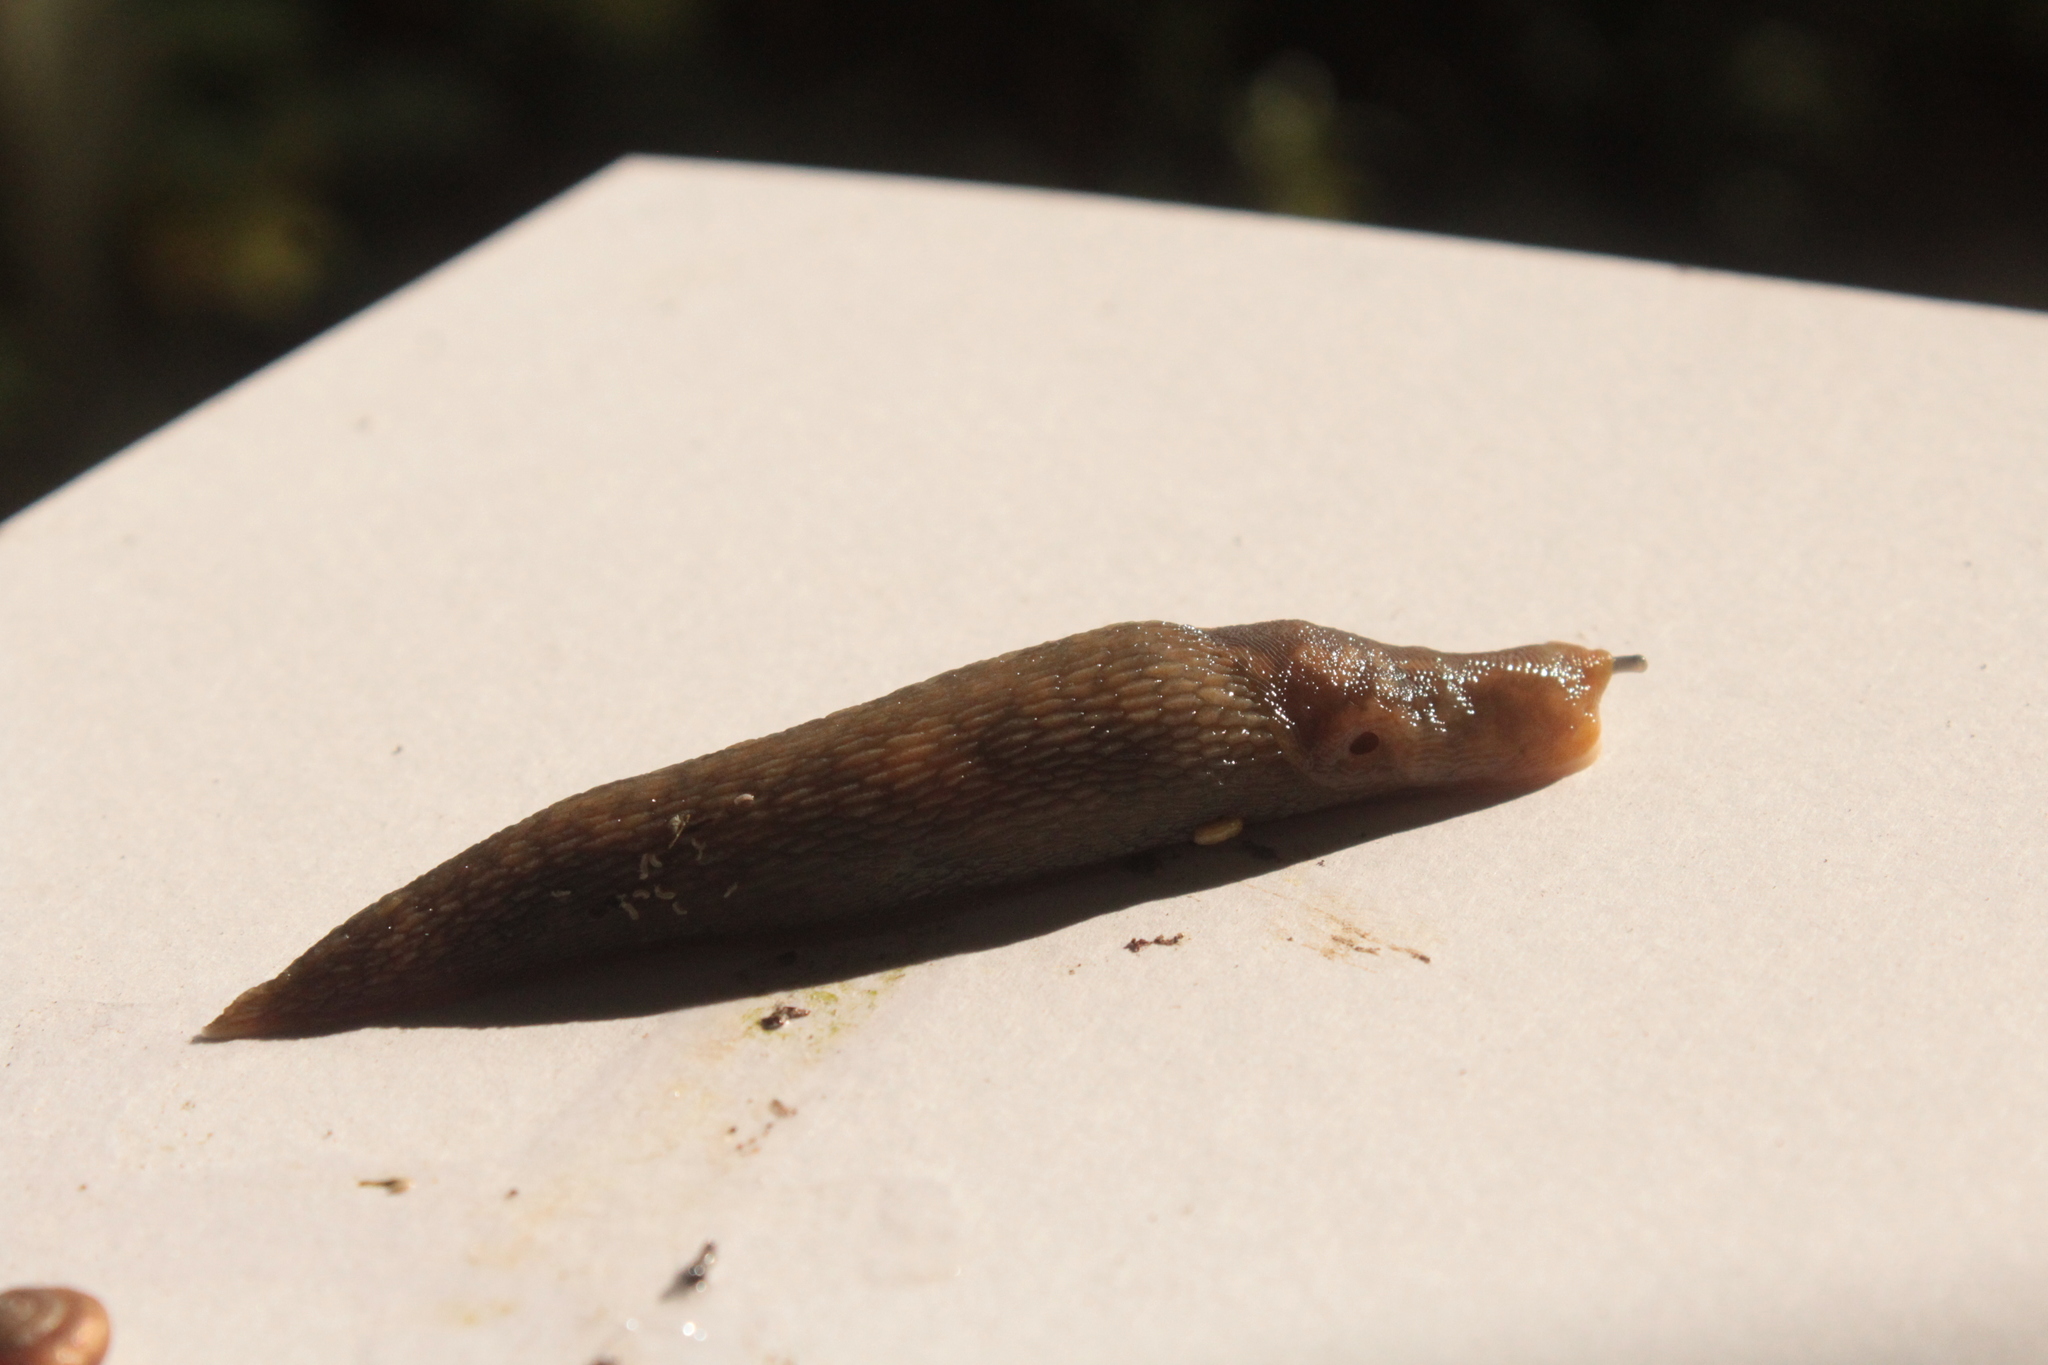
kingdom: Animalia
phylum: Mollusca
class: Gastropoda
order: Stylommatophora
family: Limacidae
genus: Limacus
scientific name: Limacus flavus
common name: Yellow gardenslug
